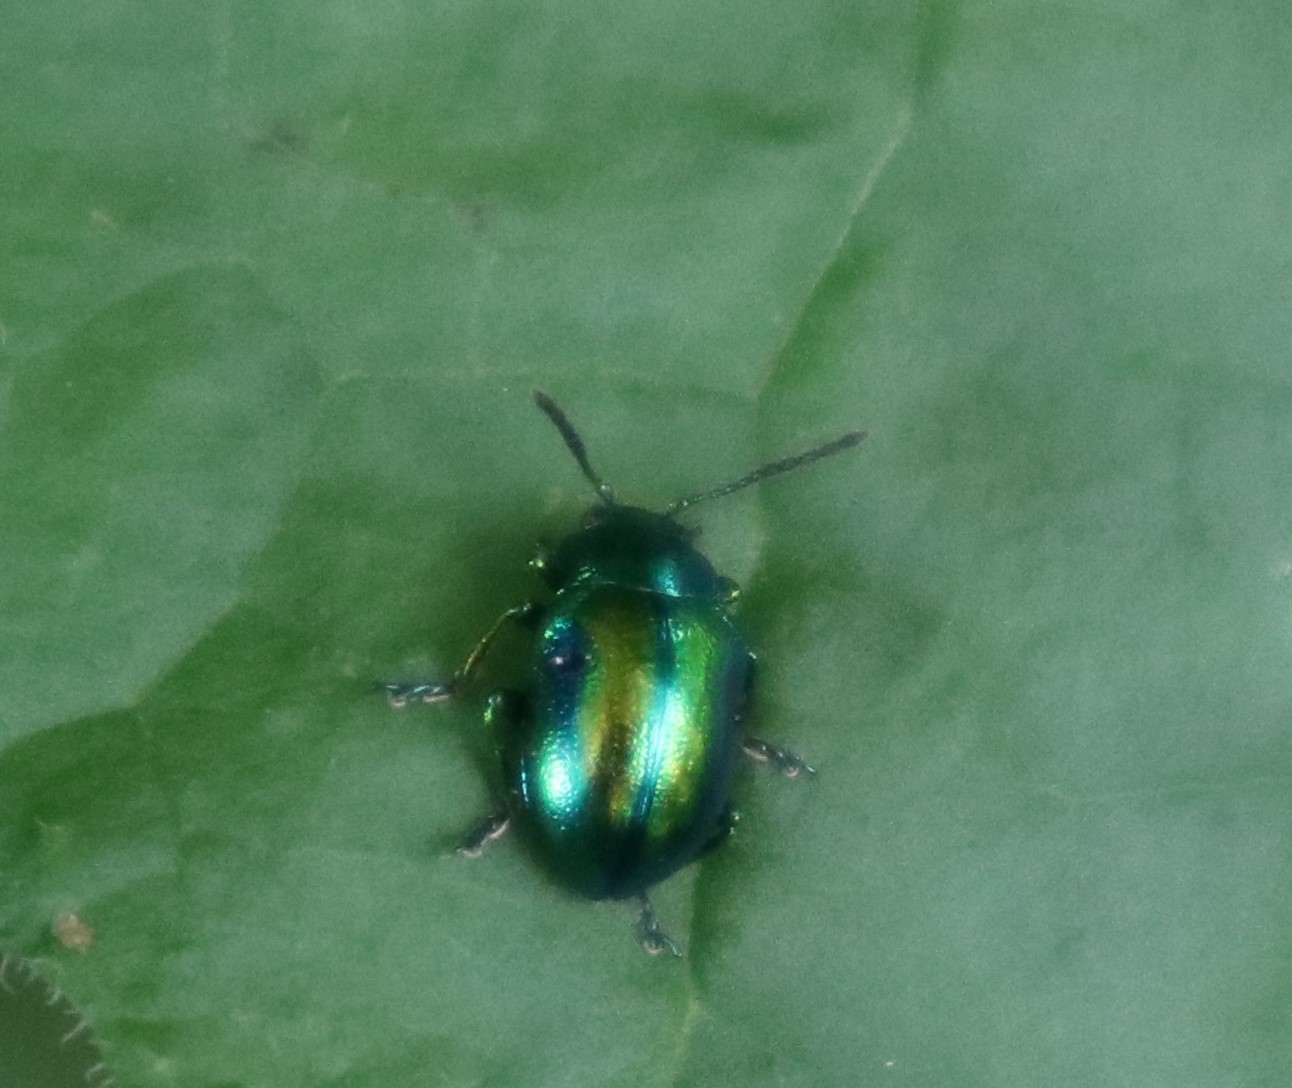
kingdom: Animalia
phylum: Arthropoda
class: Insecta
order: Coleoptera
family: Chrysomelidae
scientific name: Chrysomelidae
